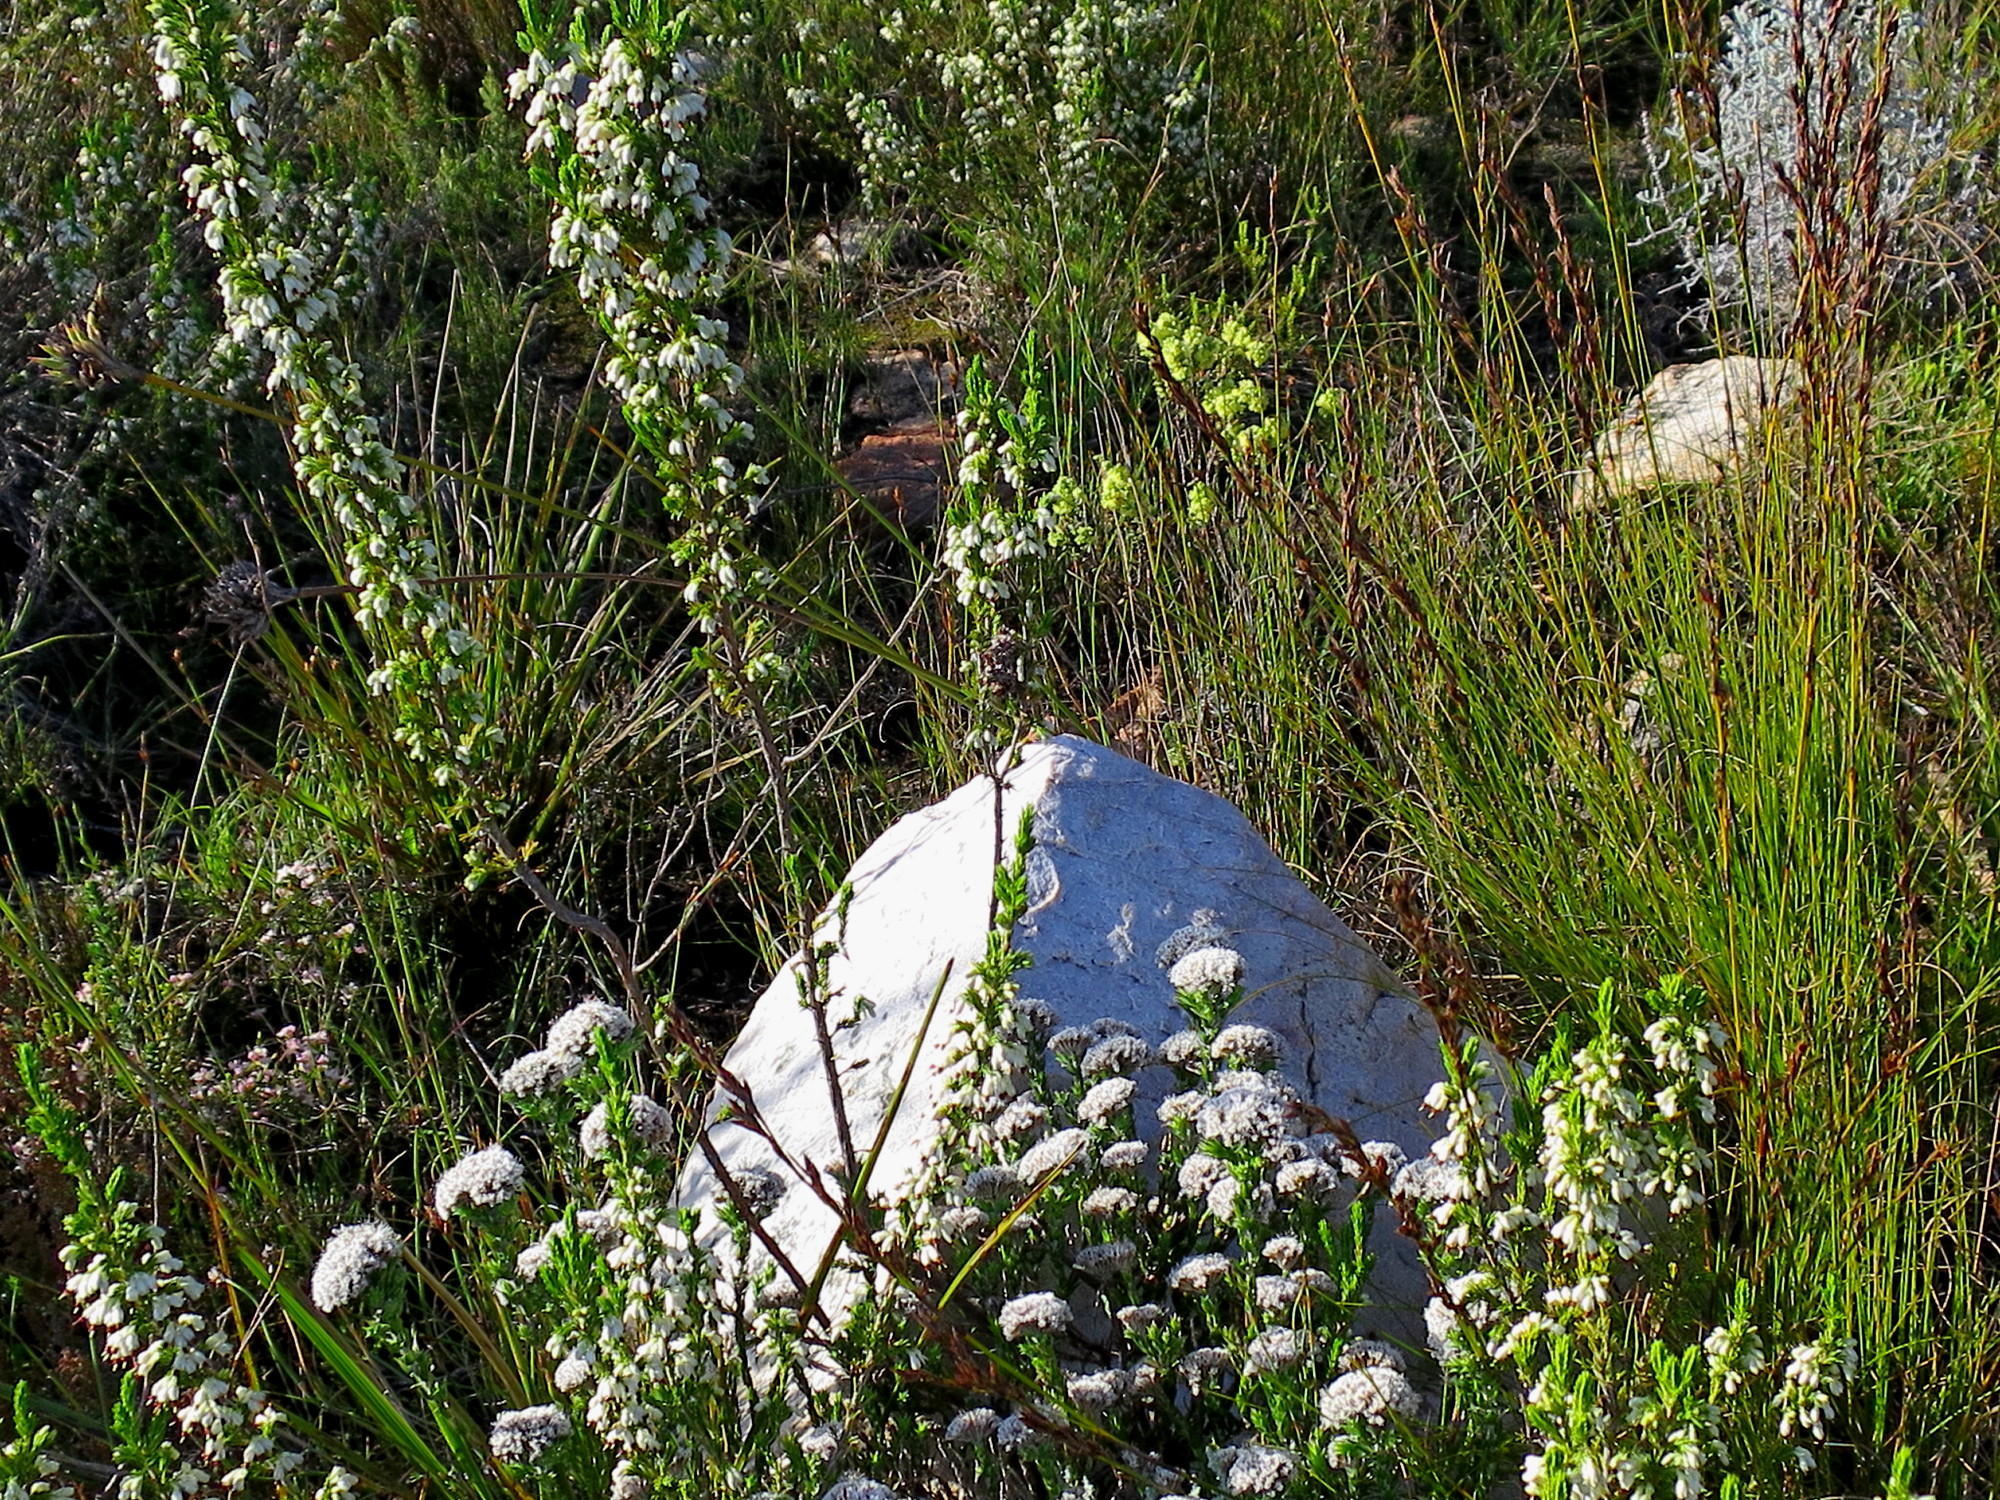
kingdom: Plantae
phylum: Tracheophyta
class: Magnoliopsida
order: Ericales
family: Ericaceae
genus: Erica
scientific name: Erica imbricata
